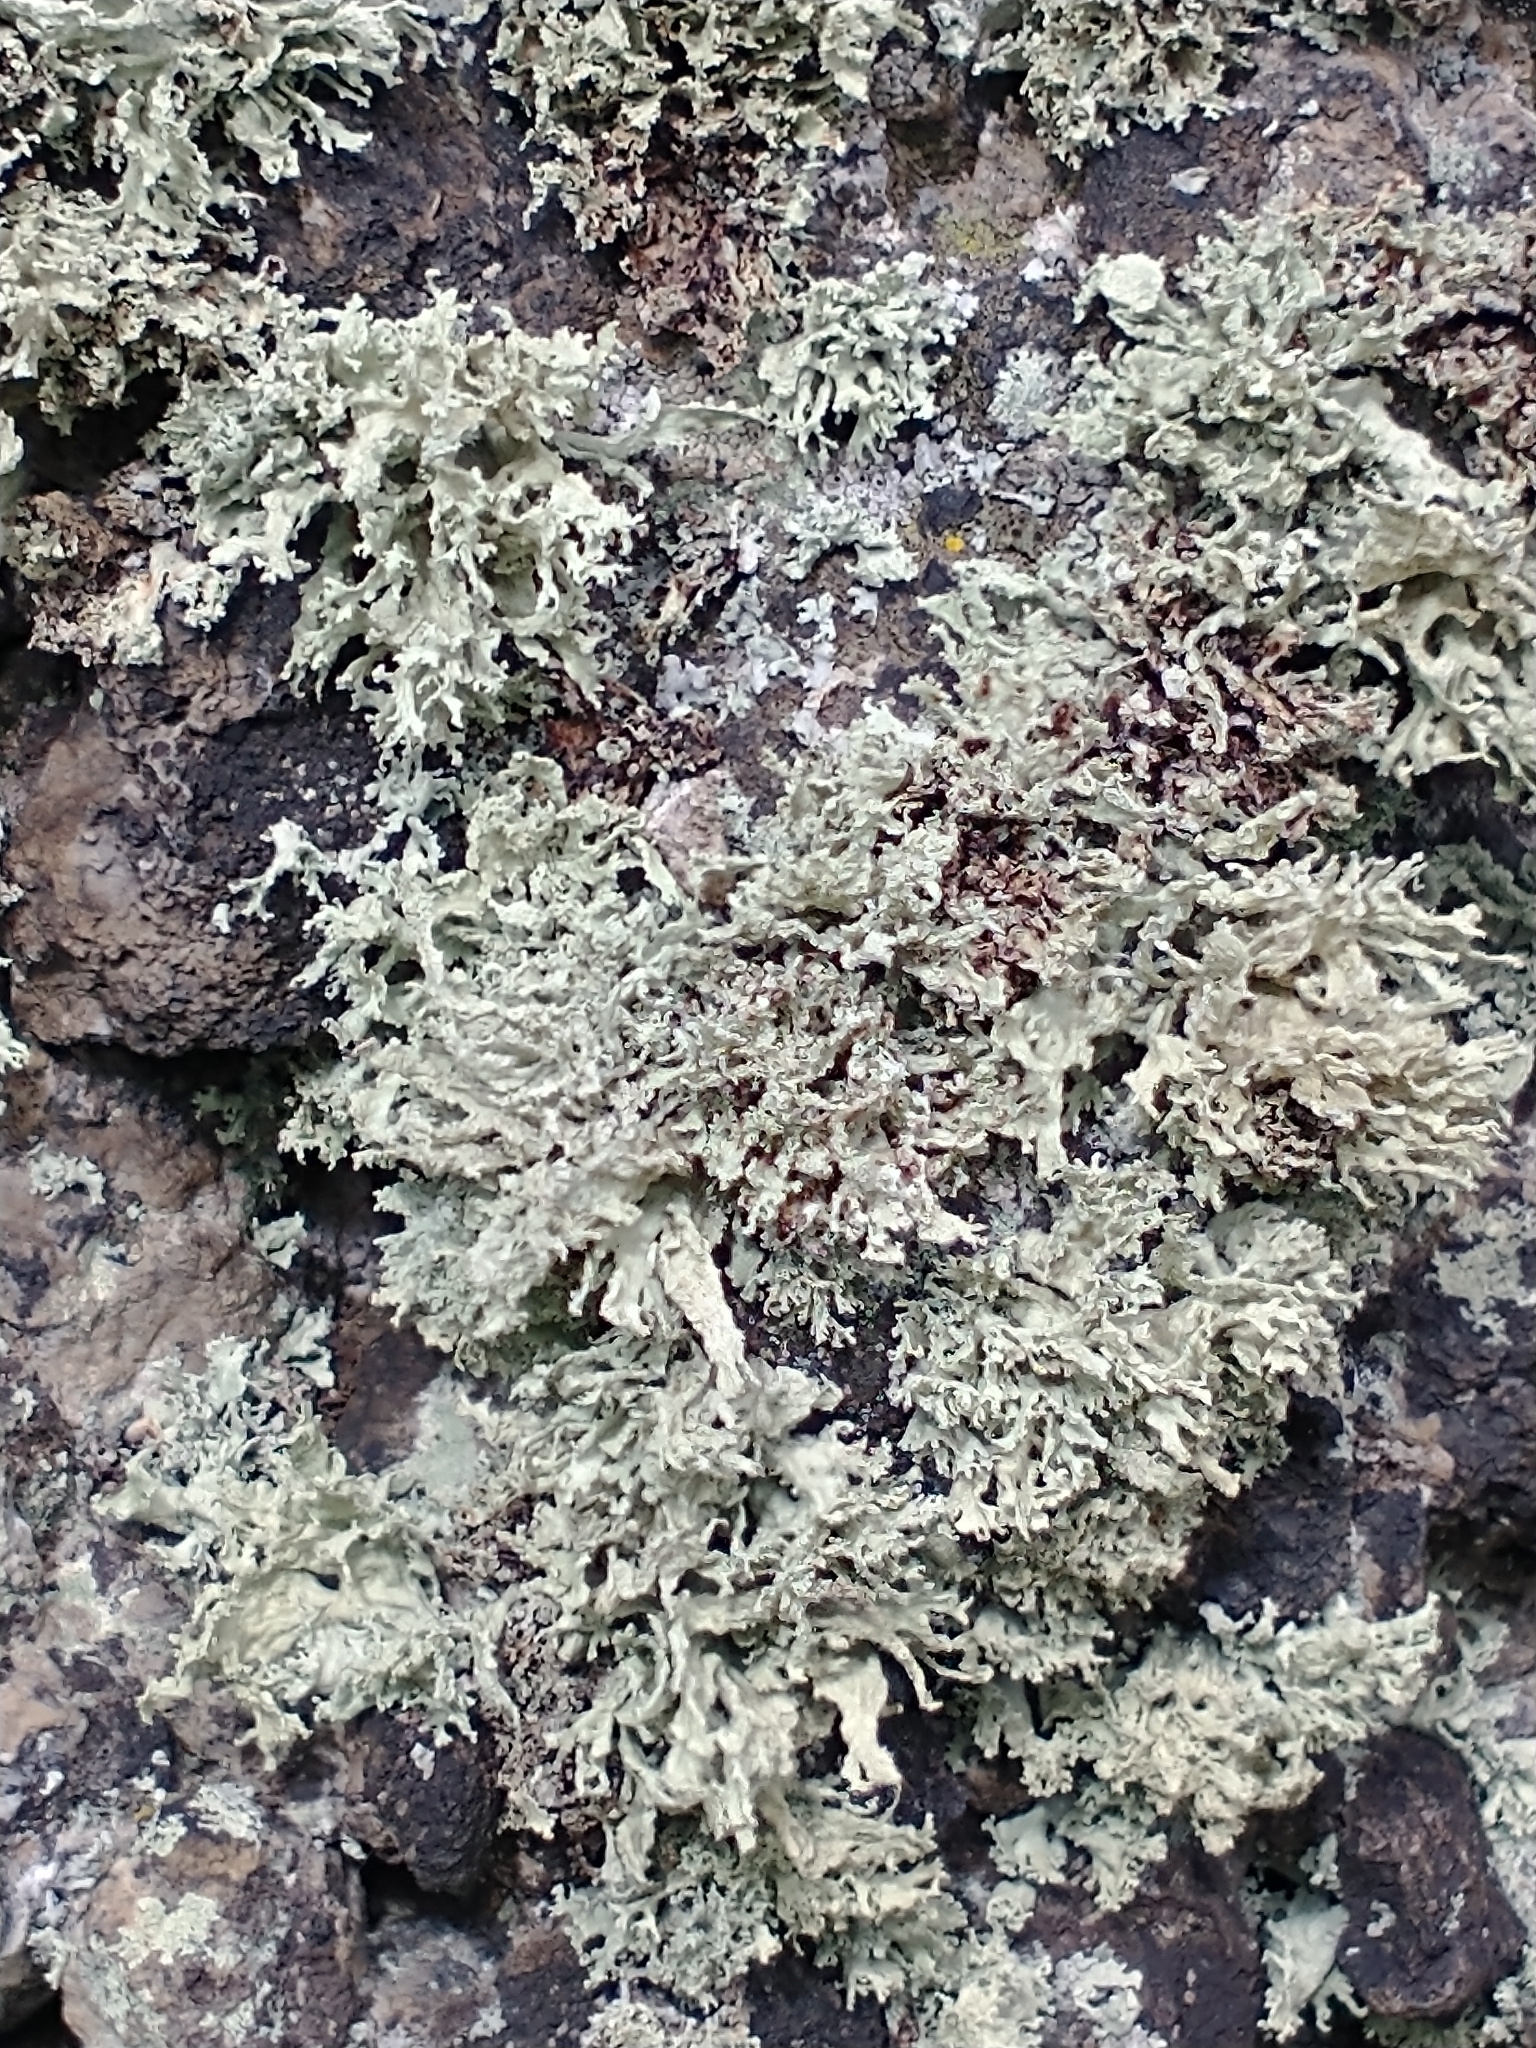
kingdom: Fungi
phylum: Ascomycota
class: Lecanoromycetes
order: Lecanorales
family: Ramalinaceae
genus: Ramalina
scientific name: Ramalina pollinaria
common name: Powdery twig lichen
